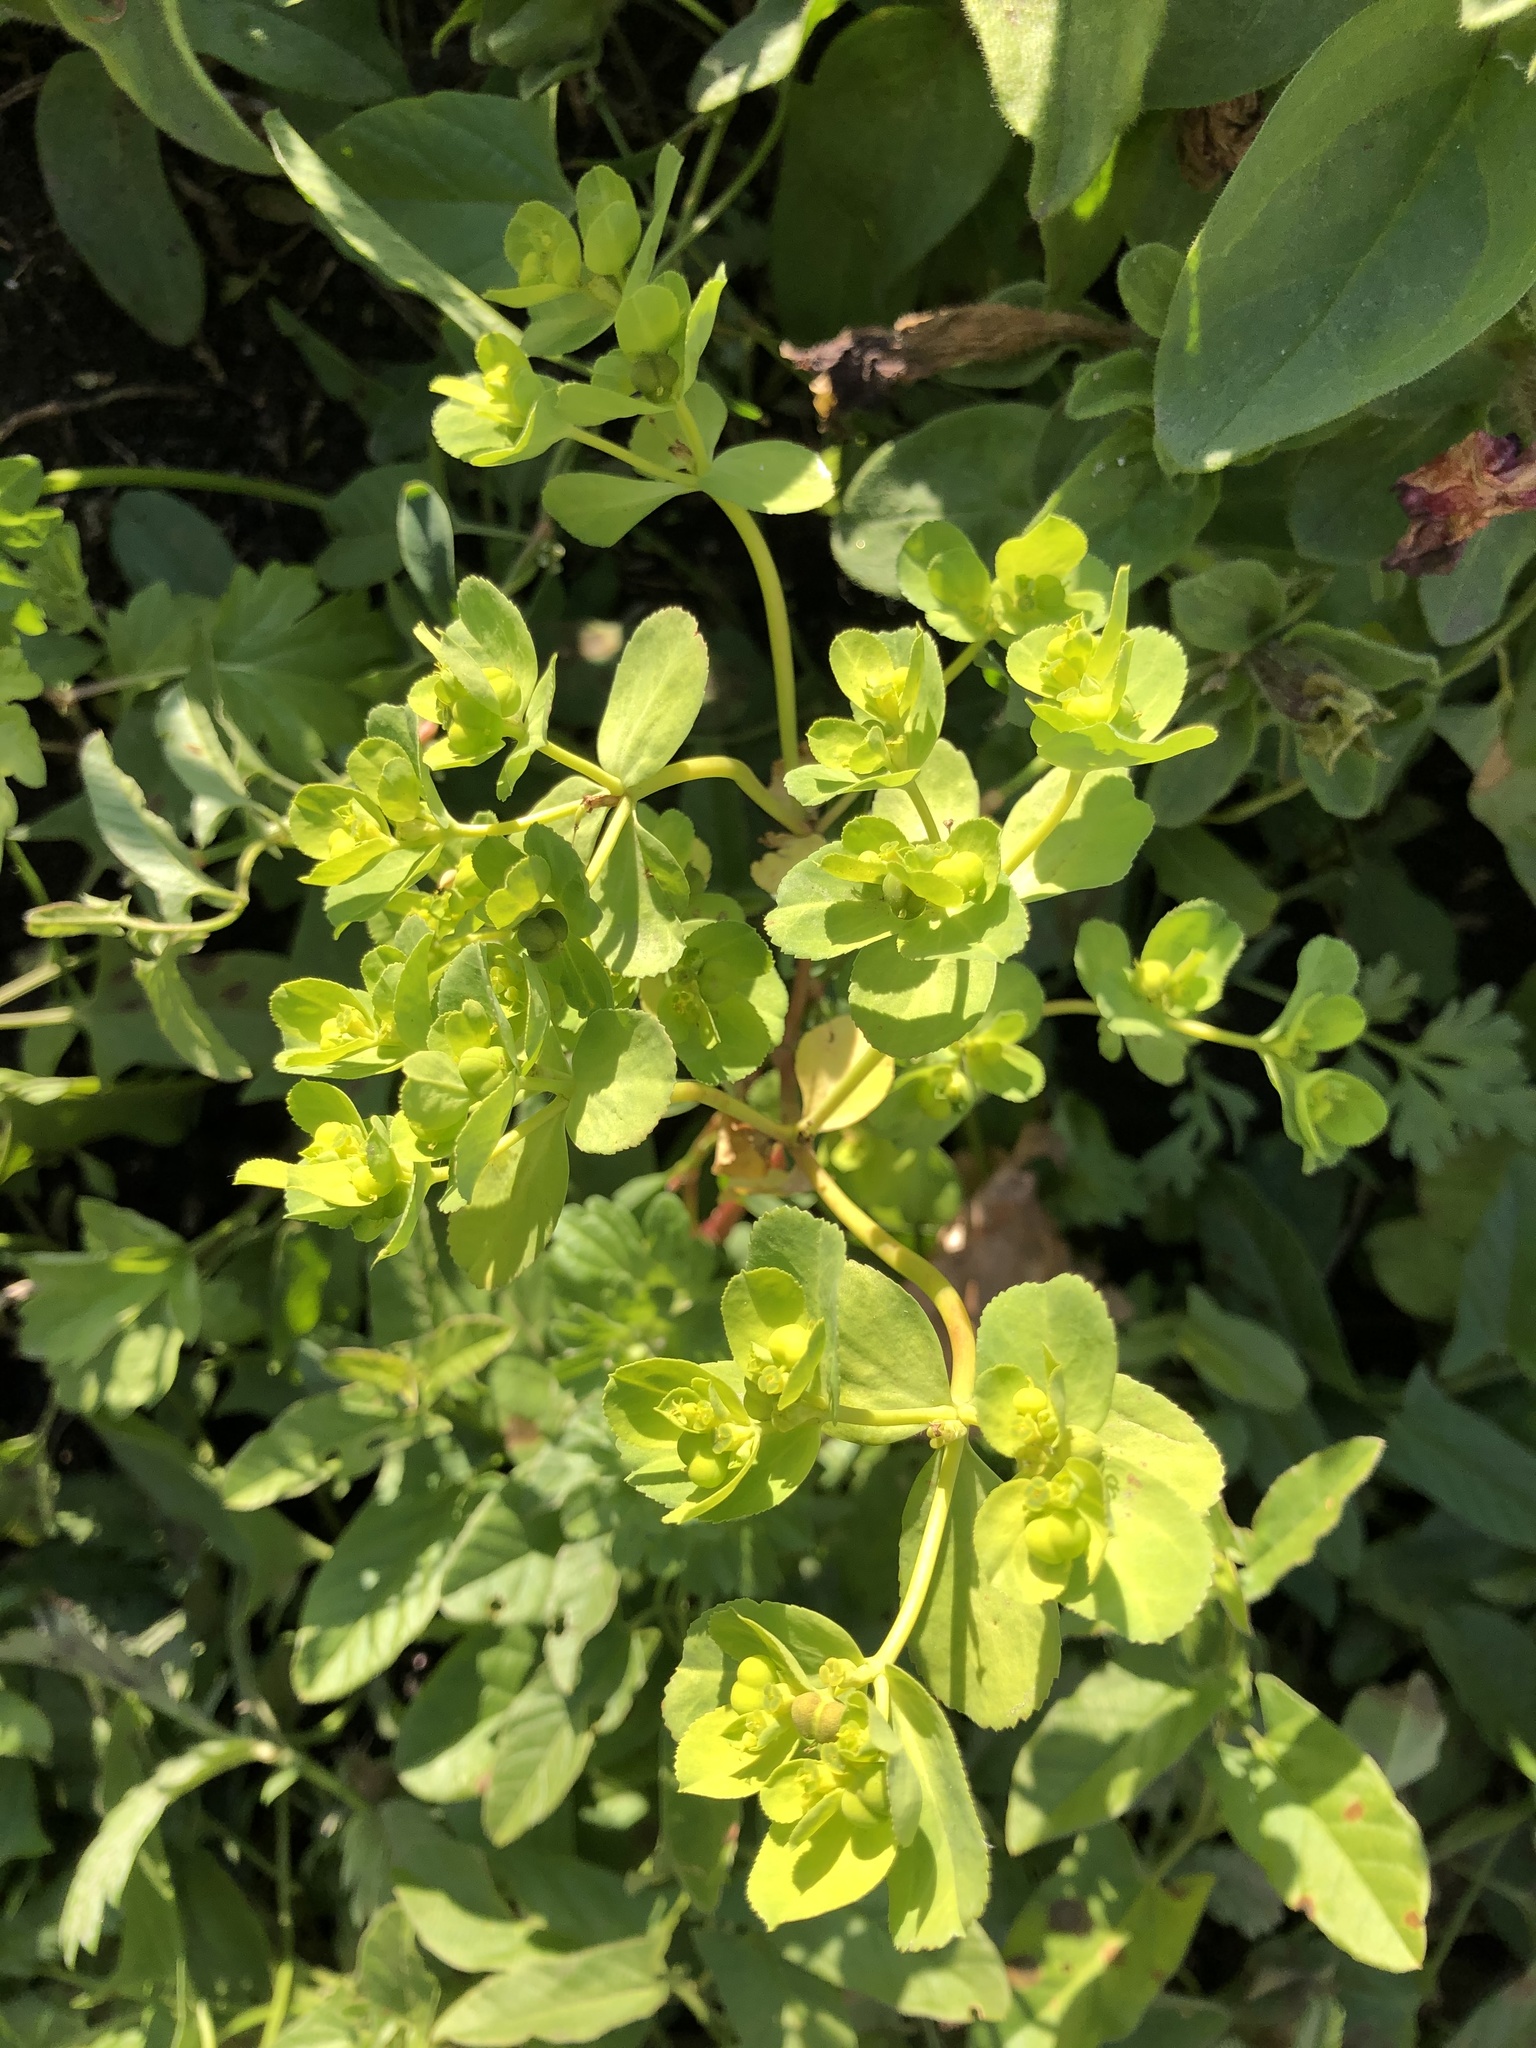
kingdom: Plantae
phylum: Tracheophyta
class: Magnoliopsida
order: Malpighiales
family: Euphorbiaceae
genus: Euphorbia
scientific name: Euphorbia helioscopia
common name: Sun spurge
